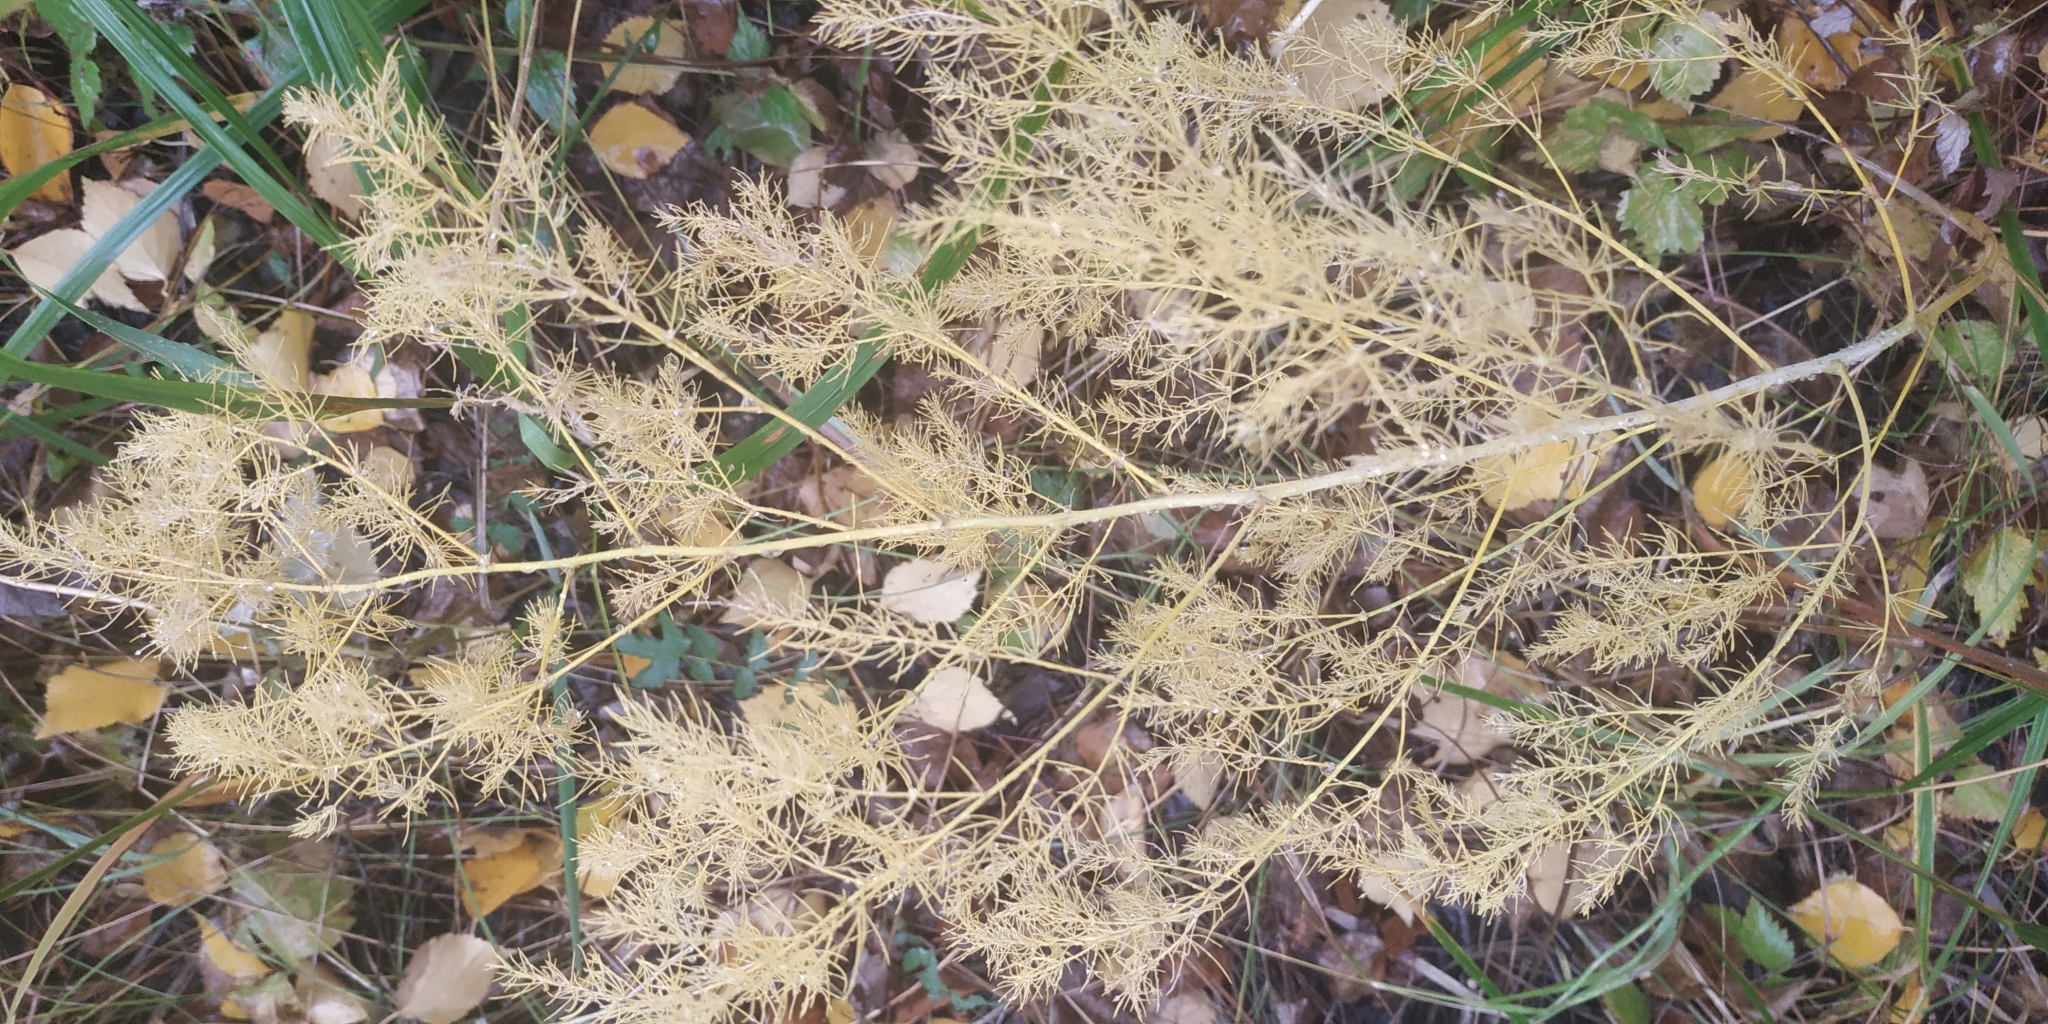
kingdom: Plantae
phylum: Tracheophyta
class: Liliopsida
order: Asparagales
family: Asparagaceae
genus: Asparagus
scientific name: Asparagus officinalis
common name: Garden asparagus
